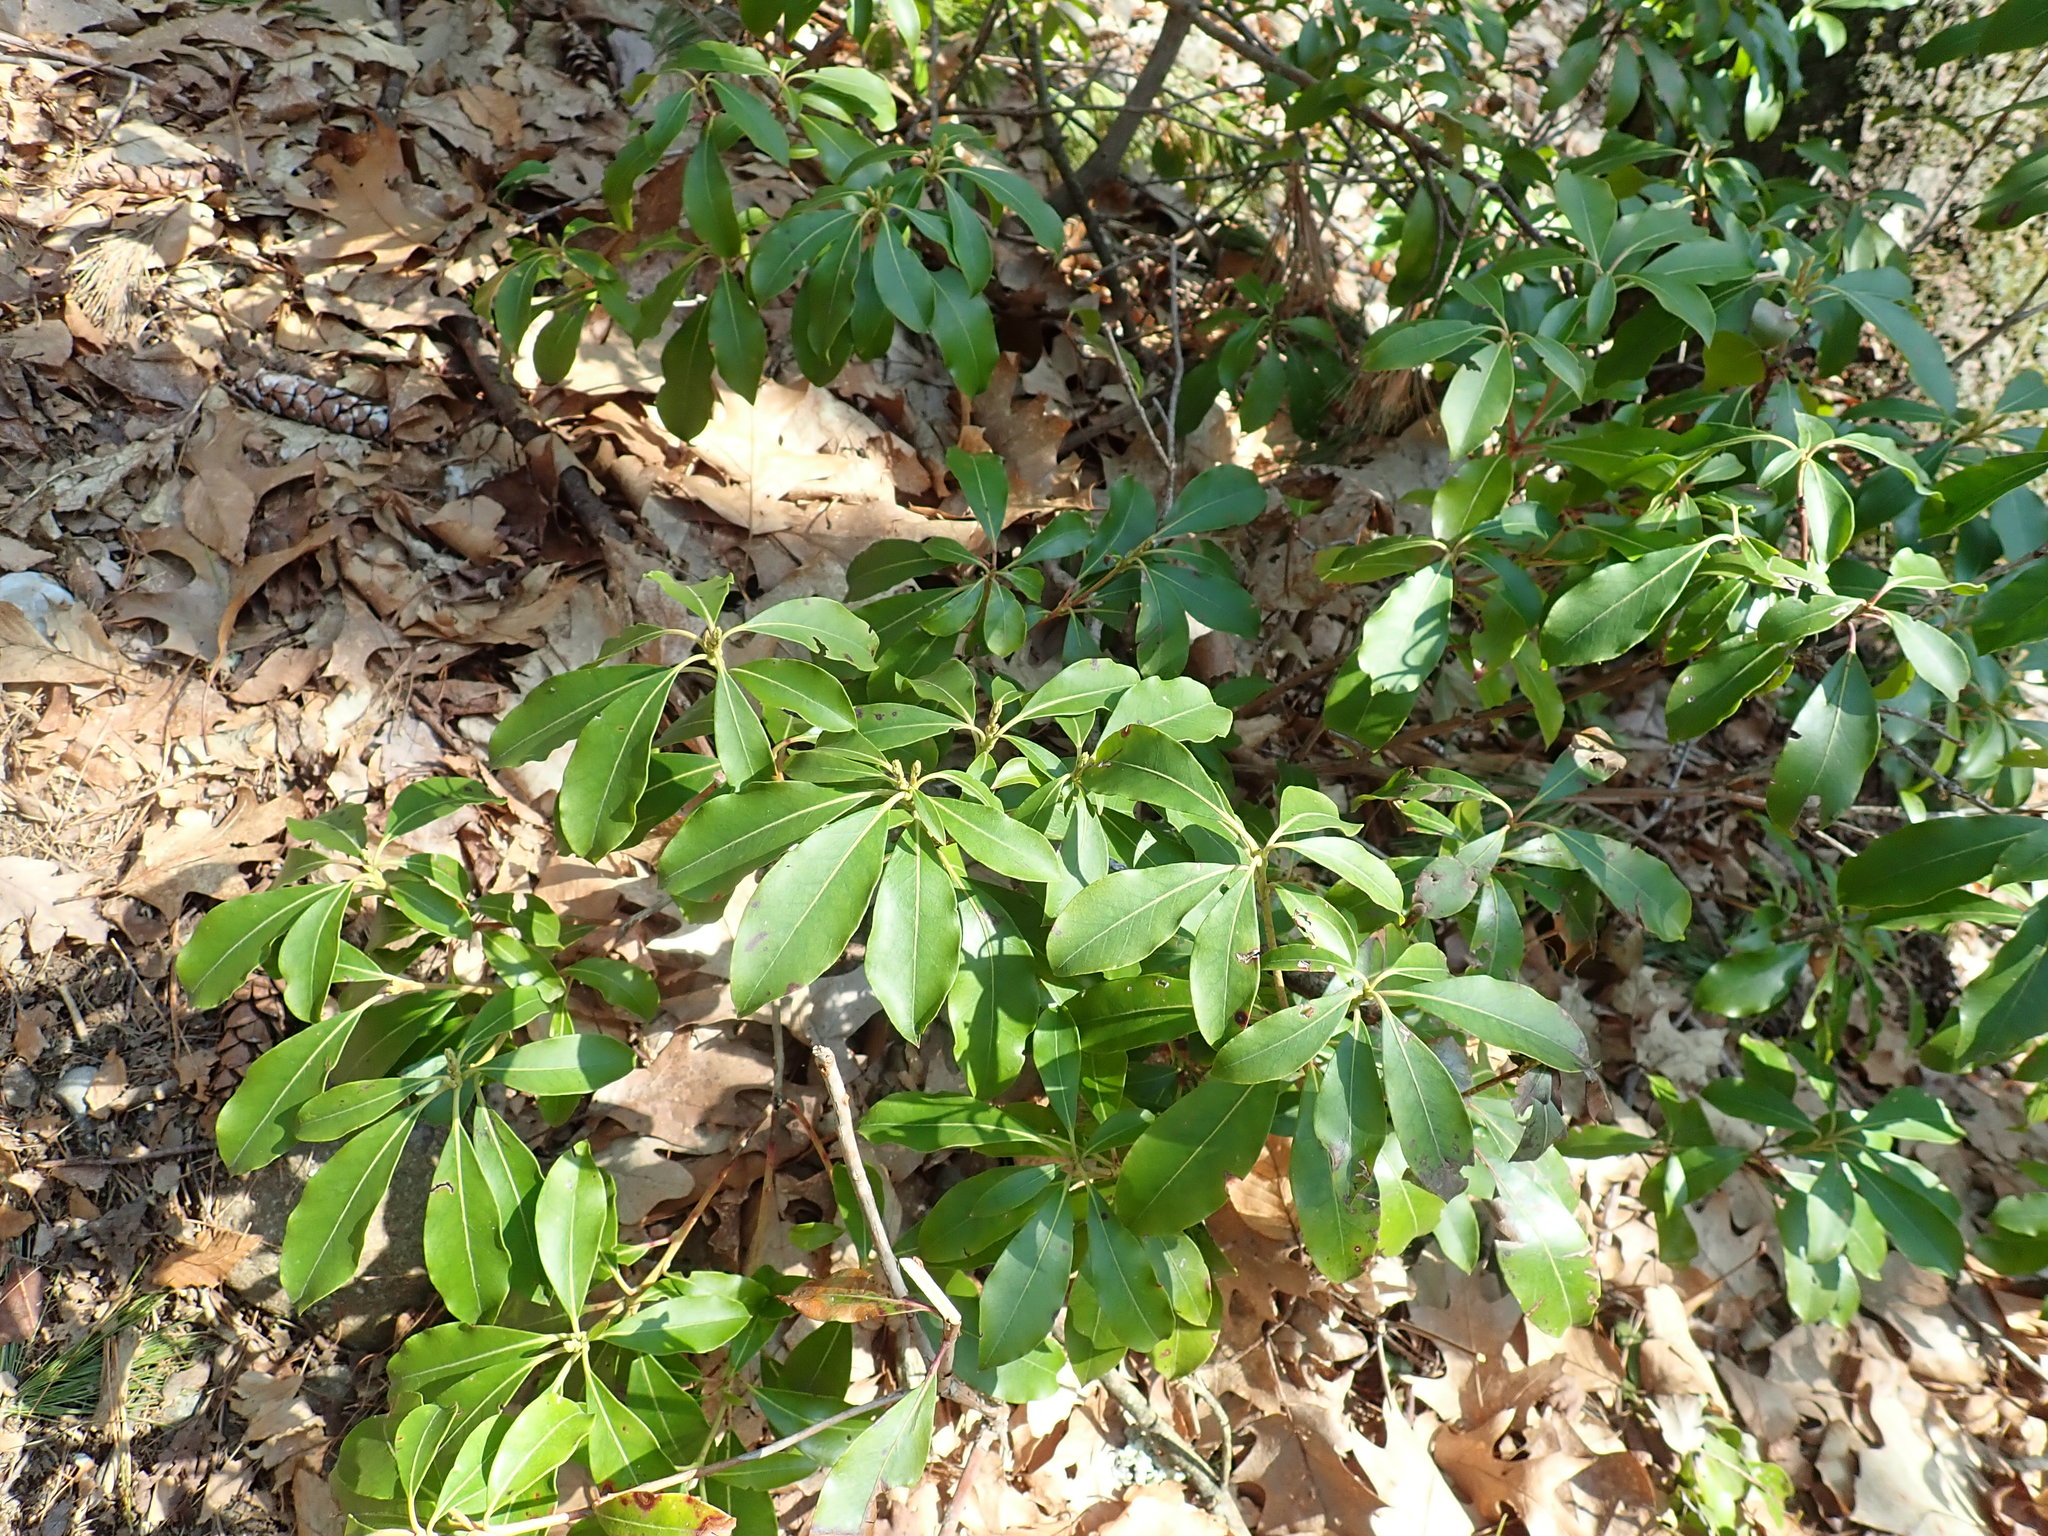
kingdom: Plantae
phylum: Tracheophyta
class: Magnoliopsida
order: Ericales
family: Ericaceae
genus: Kalmia
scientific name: Kalmia latifolia
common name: Mountain-laurel
